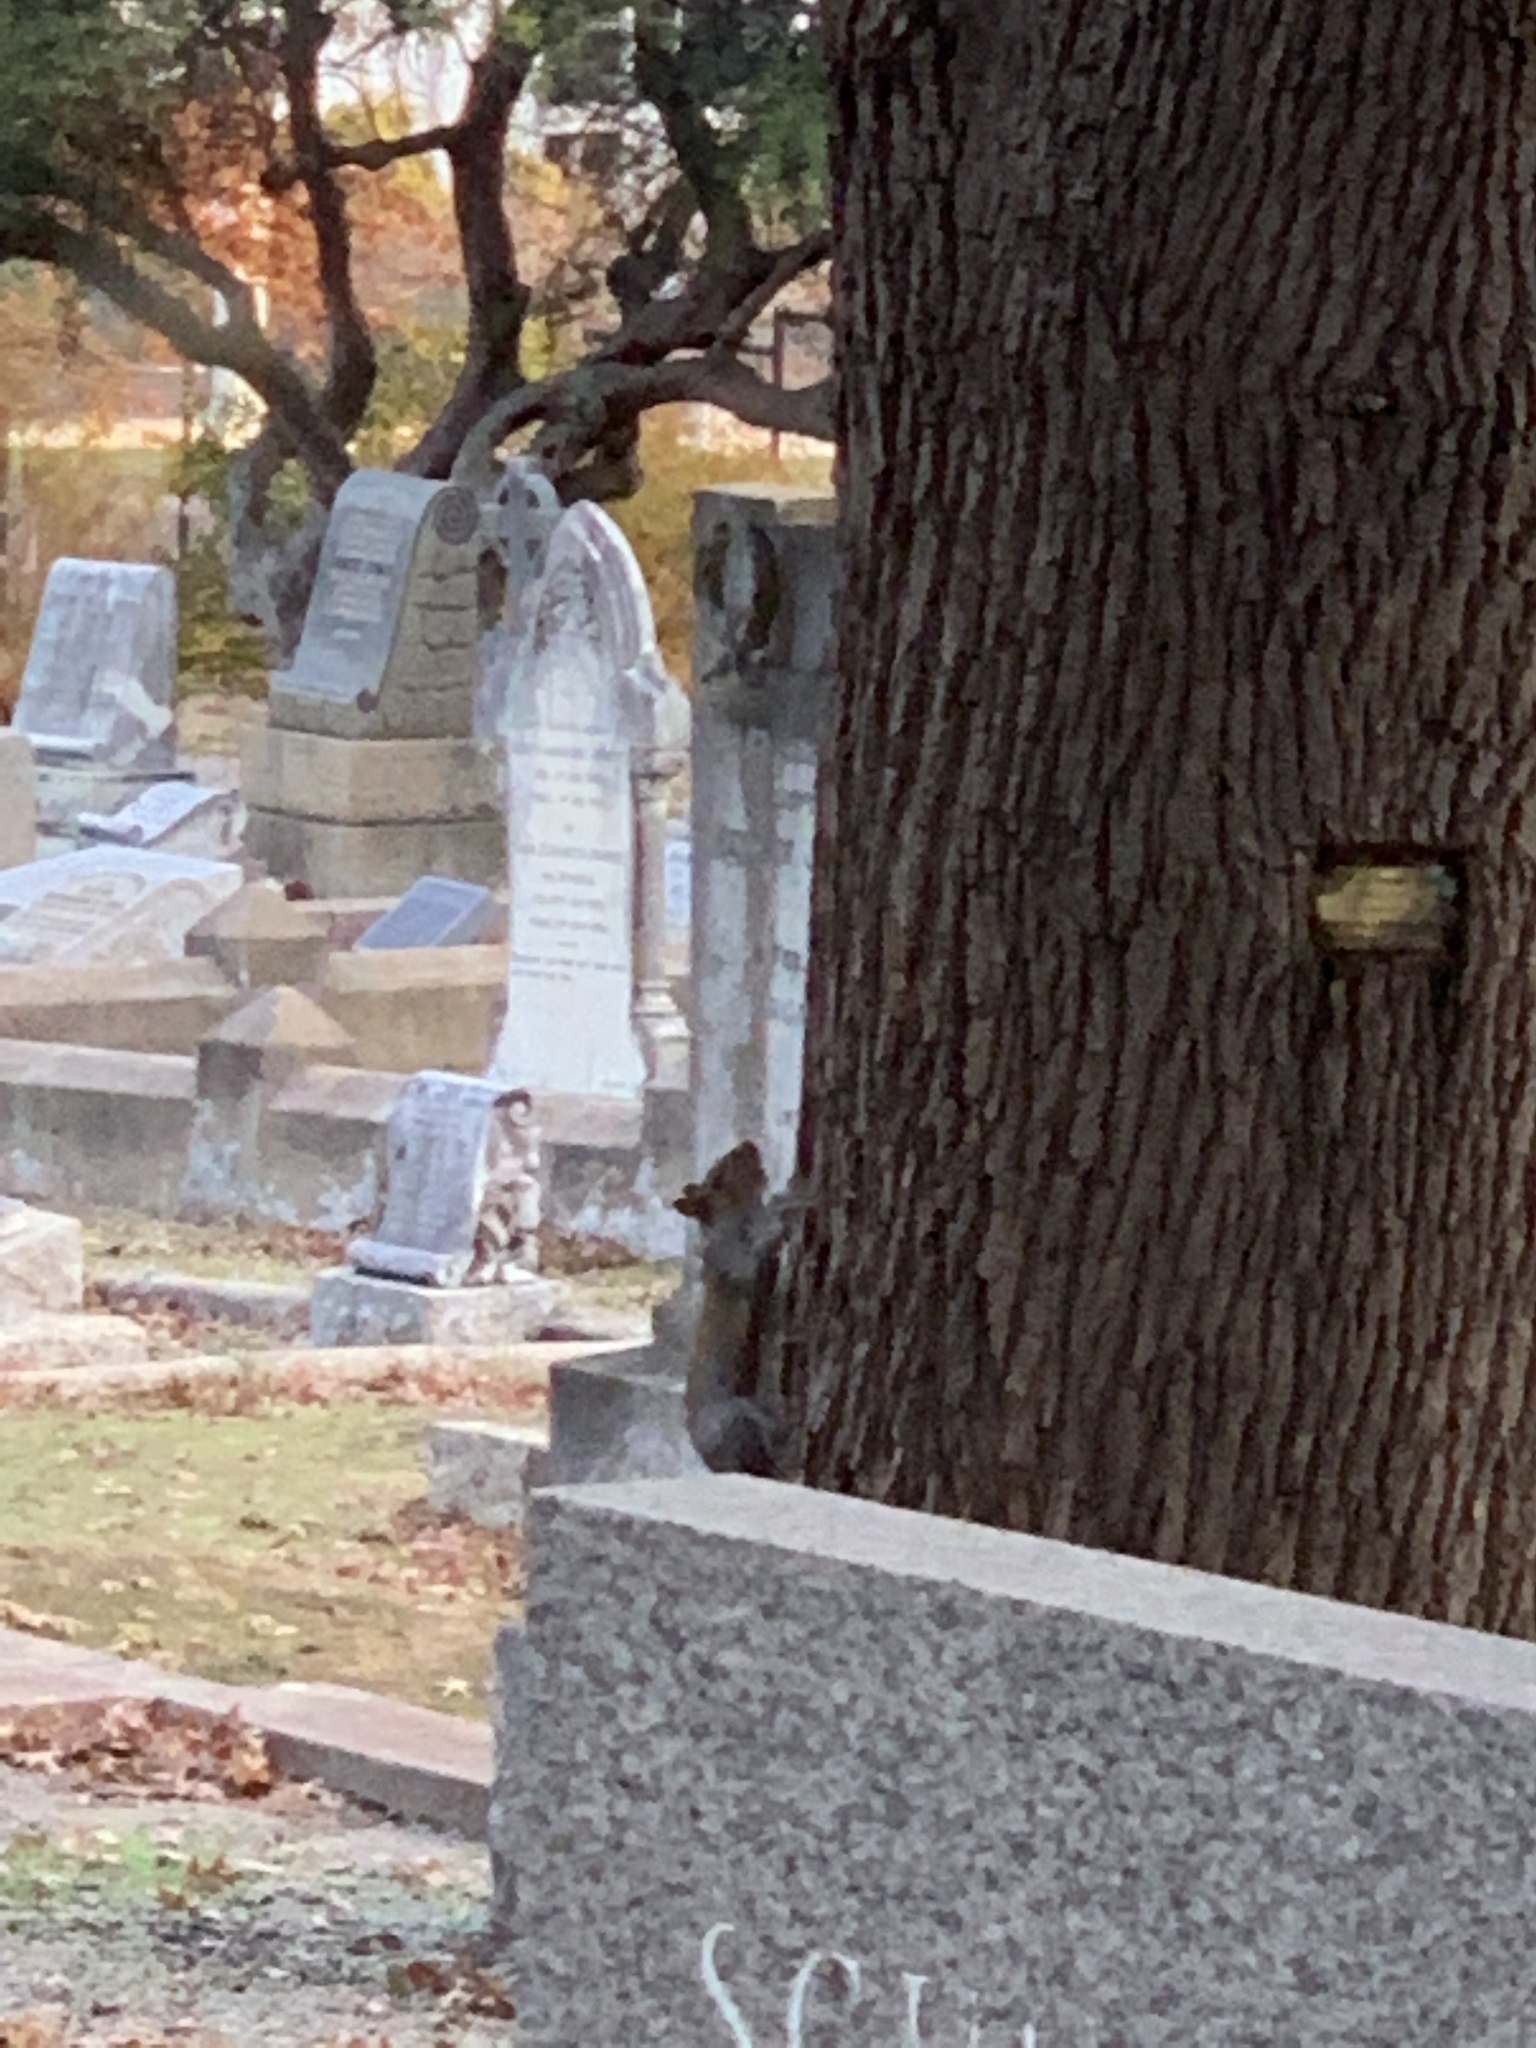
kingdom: Animalia
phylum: Chordata
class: Mammalia
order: Rodentia
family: Sciuridae
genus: Sciurus
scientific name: Sciurus carolinensis
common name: Eastern gray squirrel
